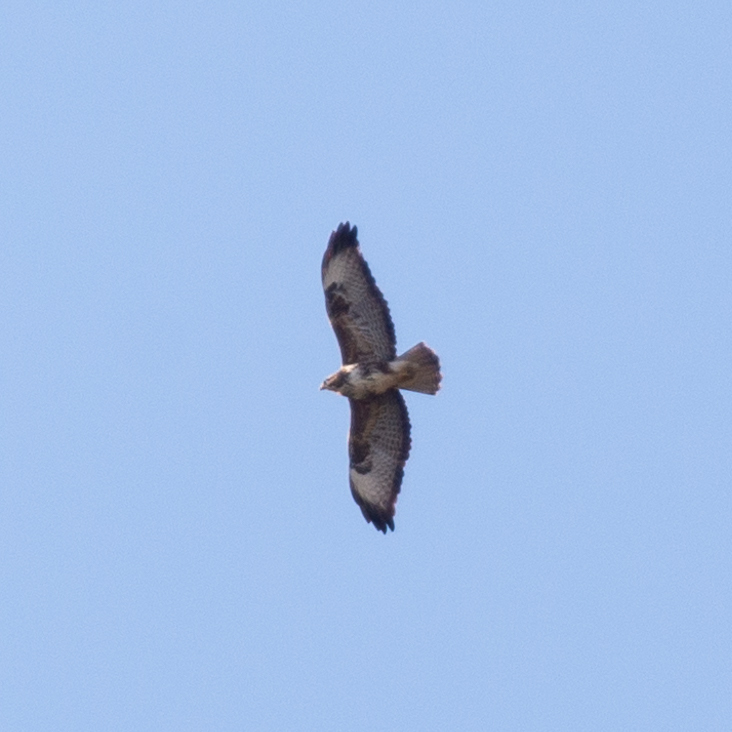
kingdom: Animalia
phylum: Chordata
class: Aves
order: Accipitriformes
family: Accipitridae
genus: Buteo
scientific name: Buteo buteo
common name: Common buzzard
